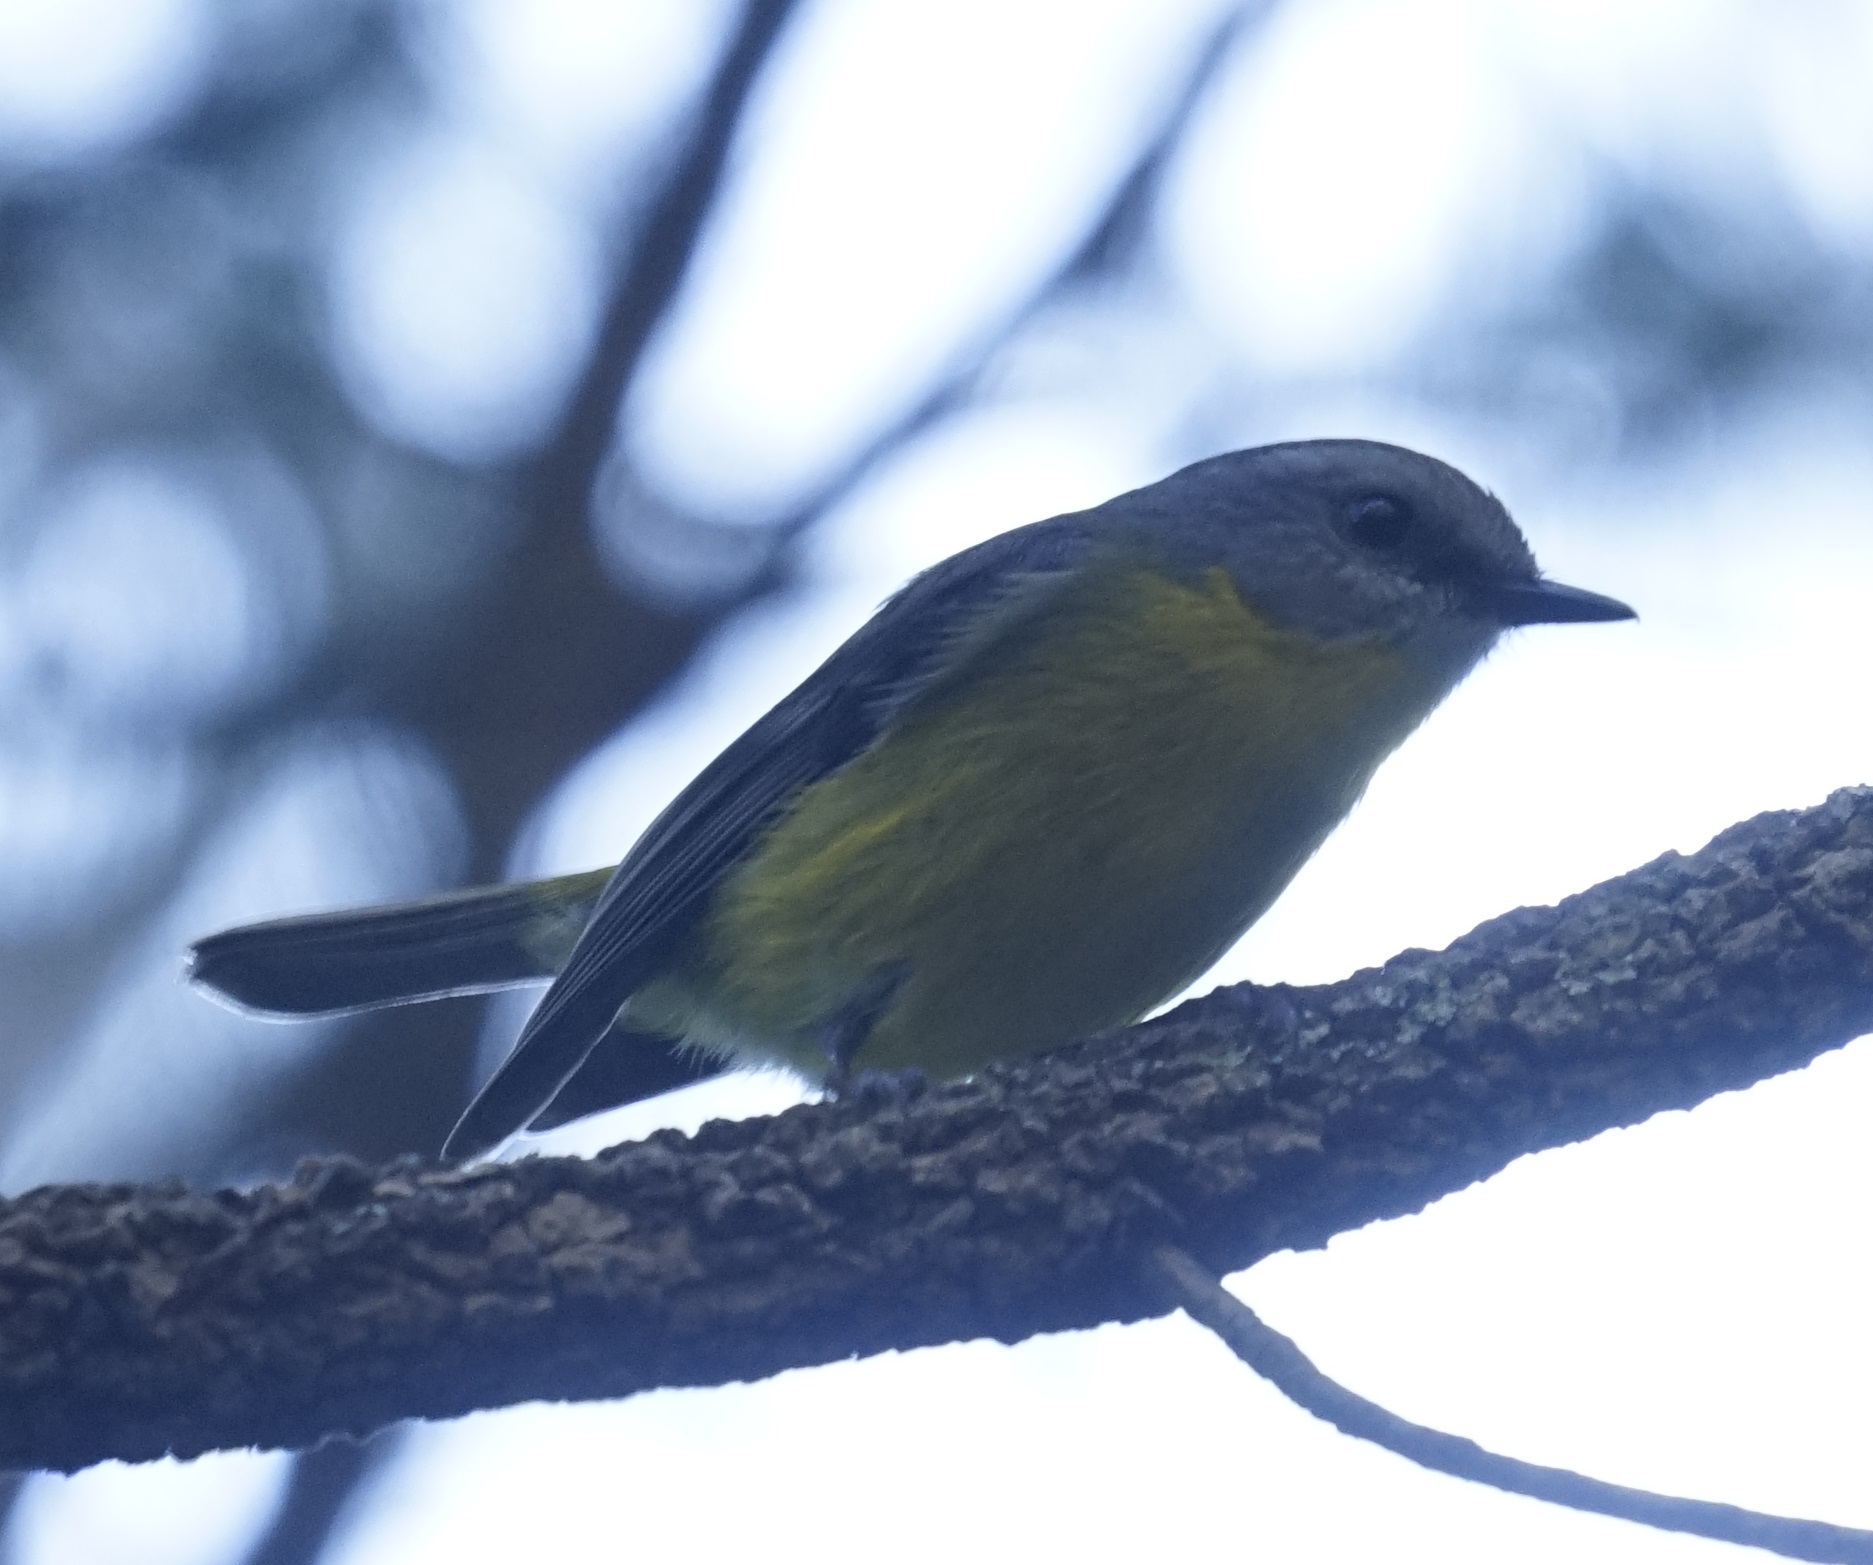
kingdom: Animalia
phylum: Chordata
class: Aves
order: Passeriformes
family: Petroicidae
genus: Eopsaltria
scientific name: Eopsaltria australis
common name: Eastern yellow robin
